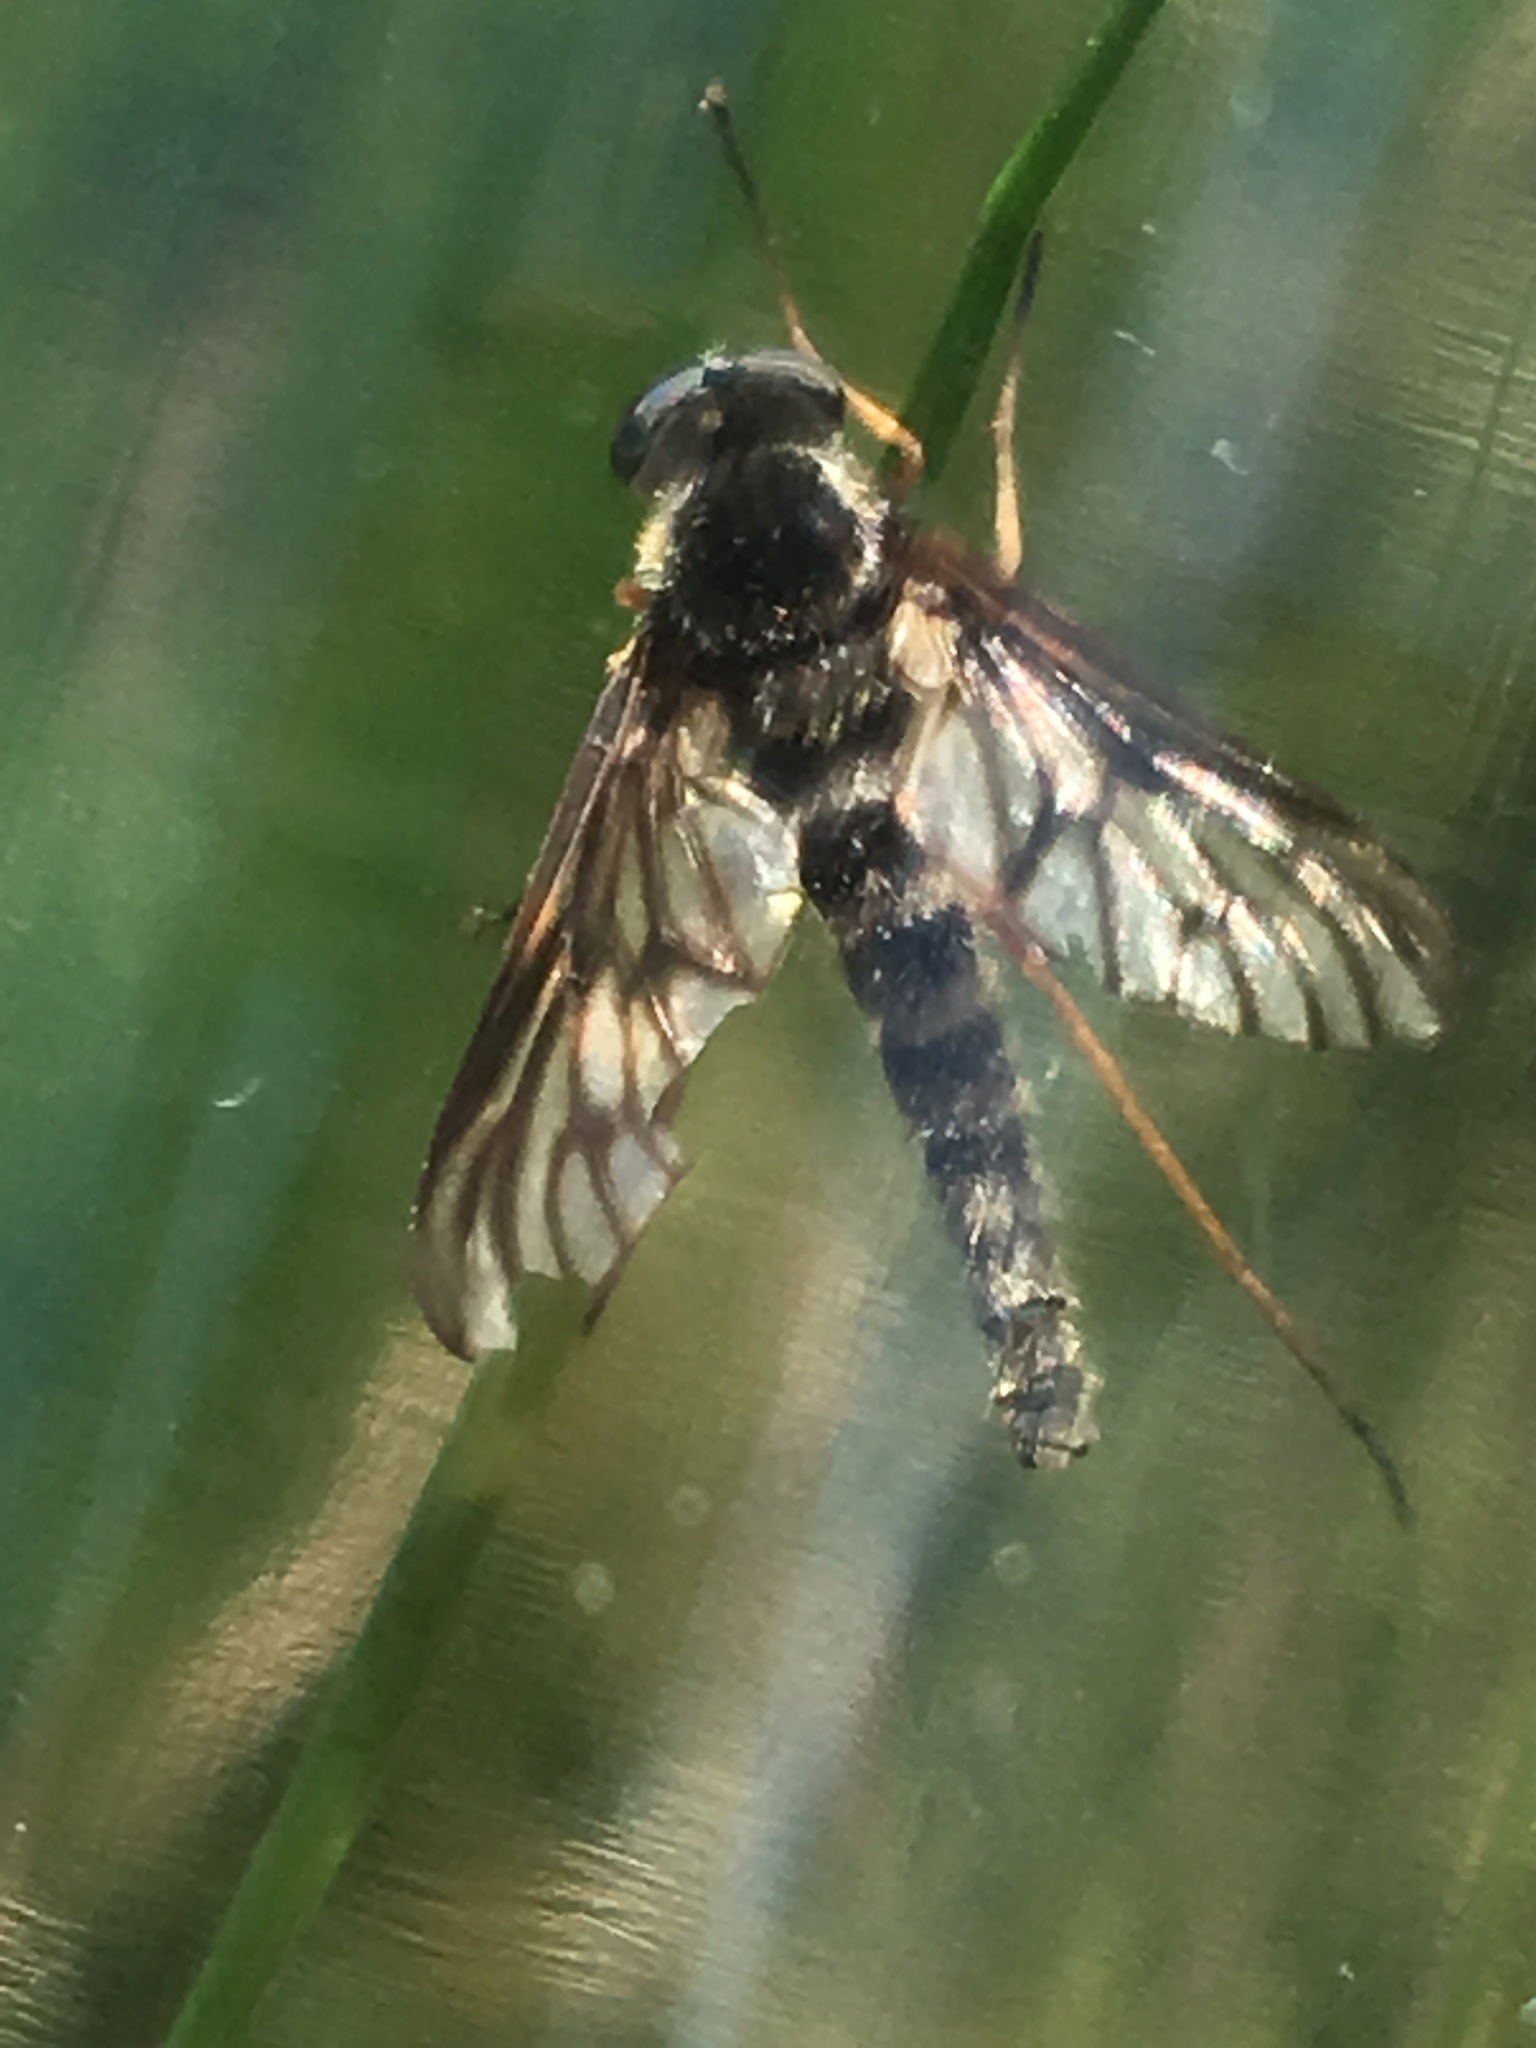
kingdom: Animalia
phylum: Arthropoda
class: Insecta
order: Diptera
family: Rhagionidae
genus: Chrysopilus
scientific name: Chrysopilus foedus
